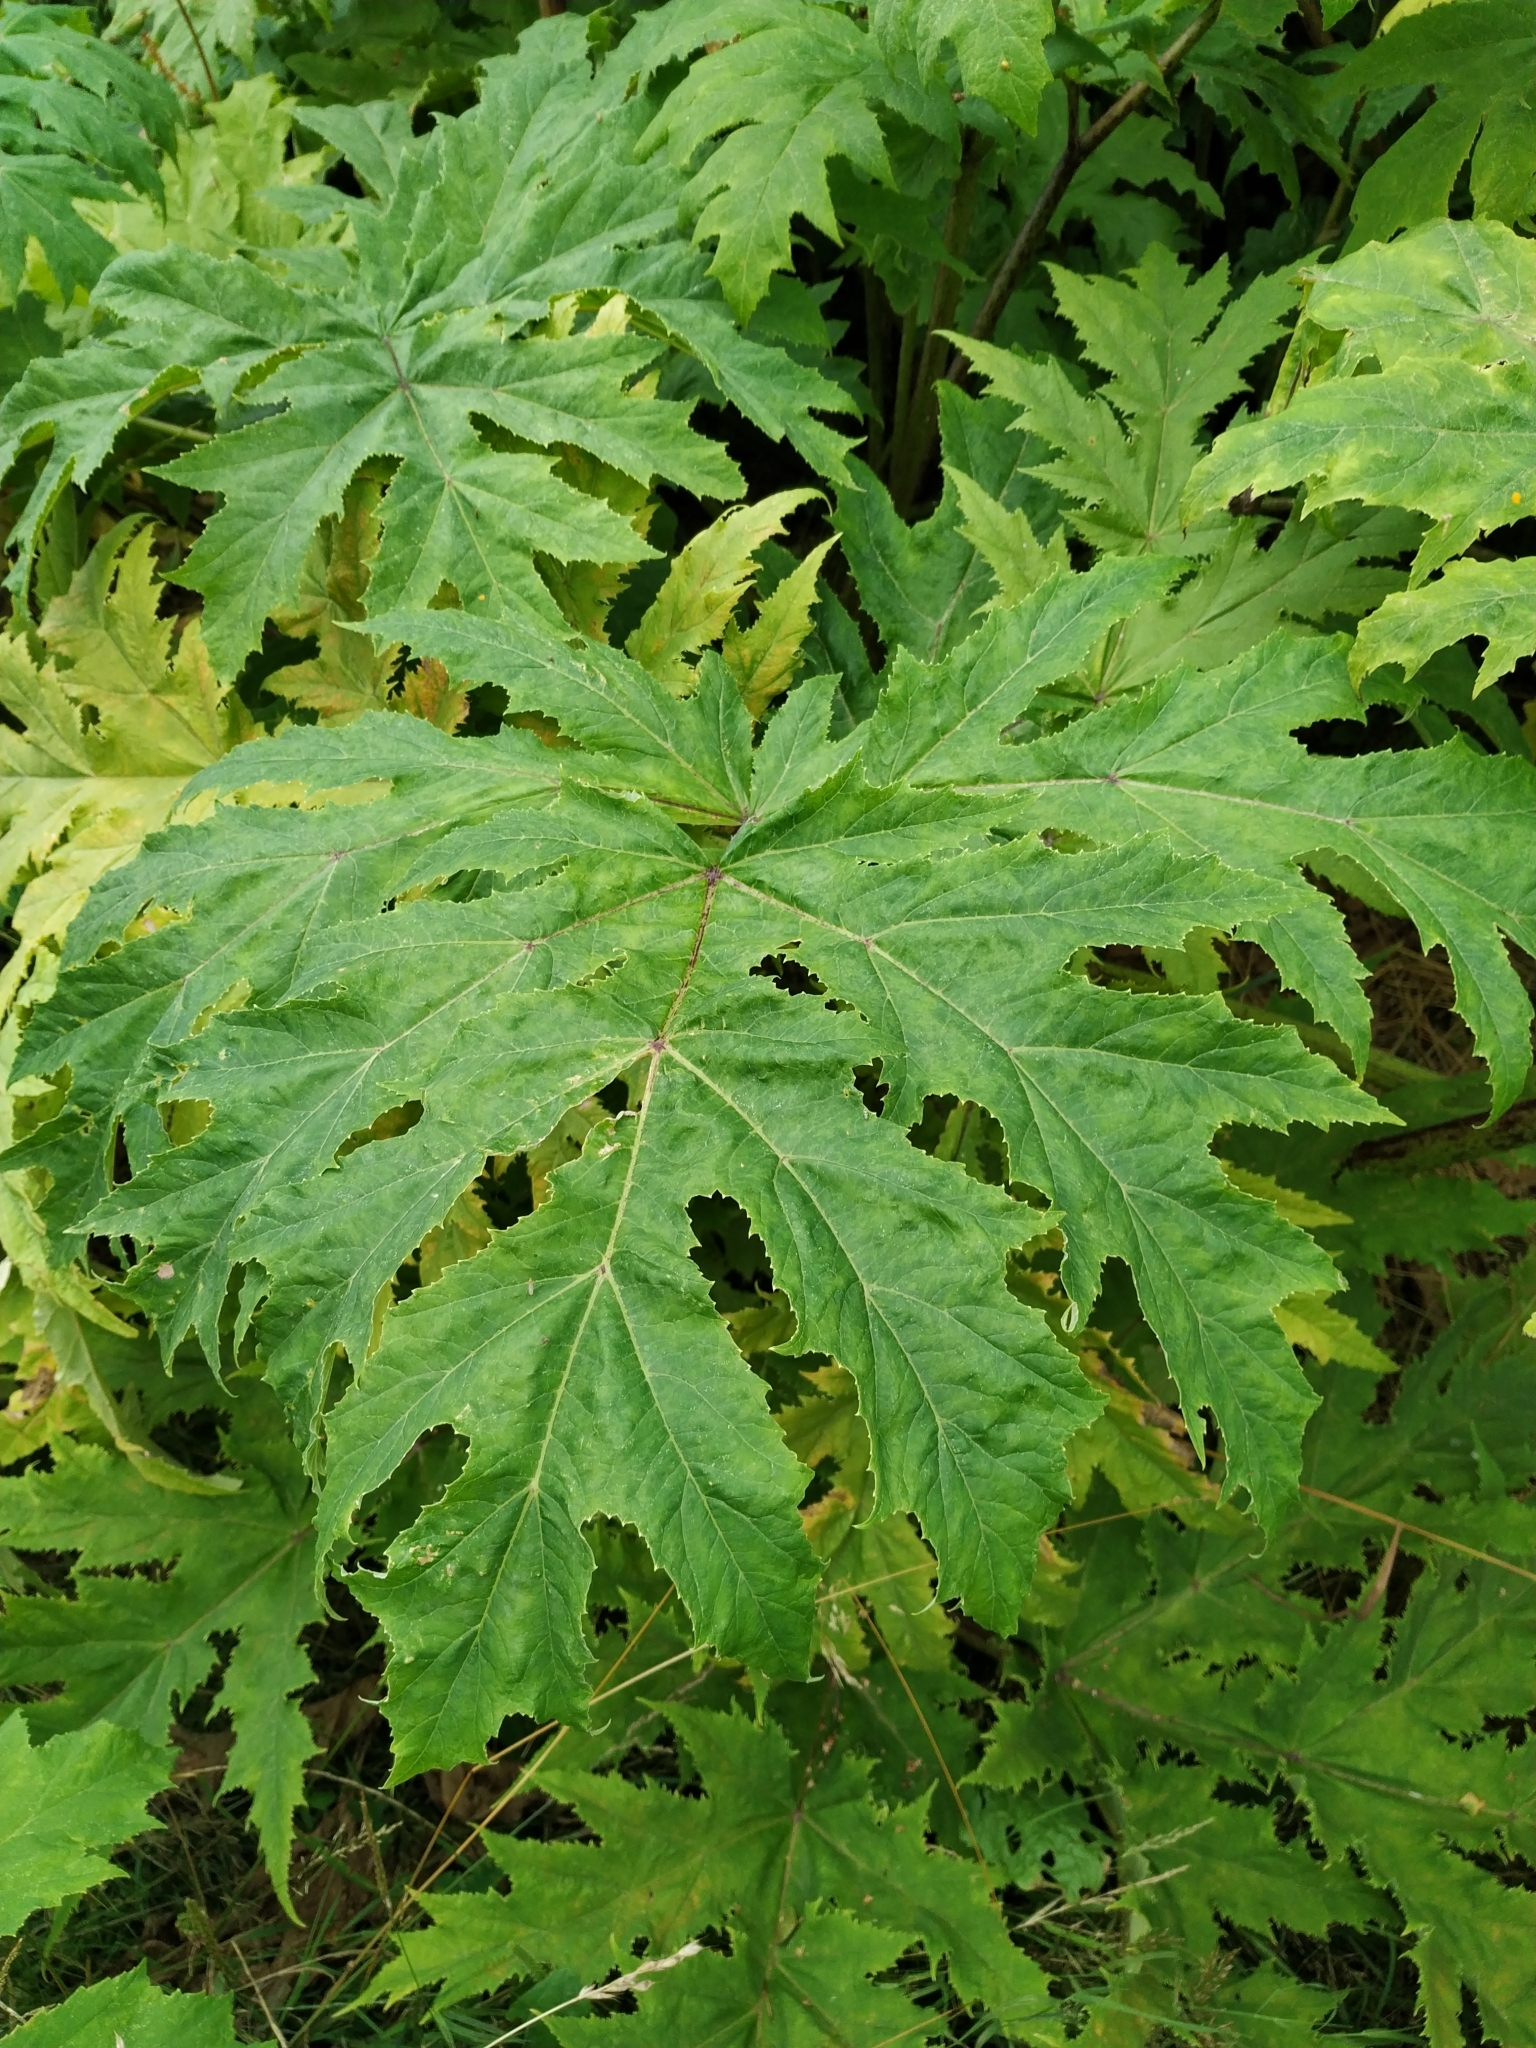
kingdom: Plantae
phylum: Tracheophyta
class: Magnoliopsida
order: Apiales
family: Apiaceae
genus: Heracleum
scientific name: Heracleum mantegazzianum
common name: Giant hogweed
